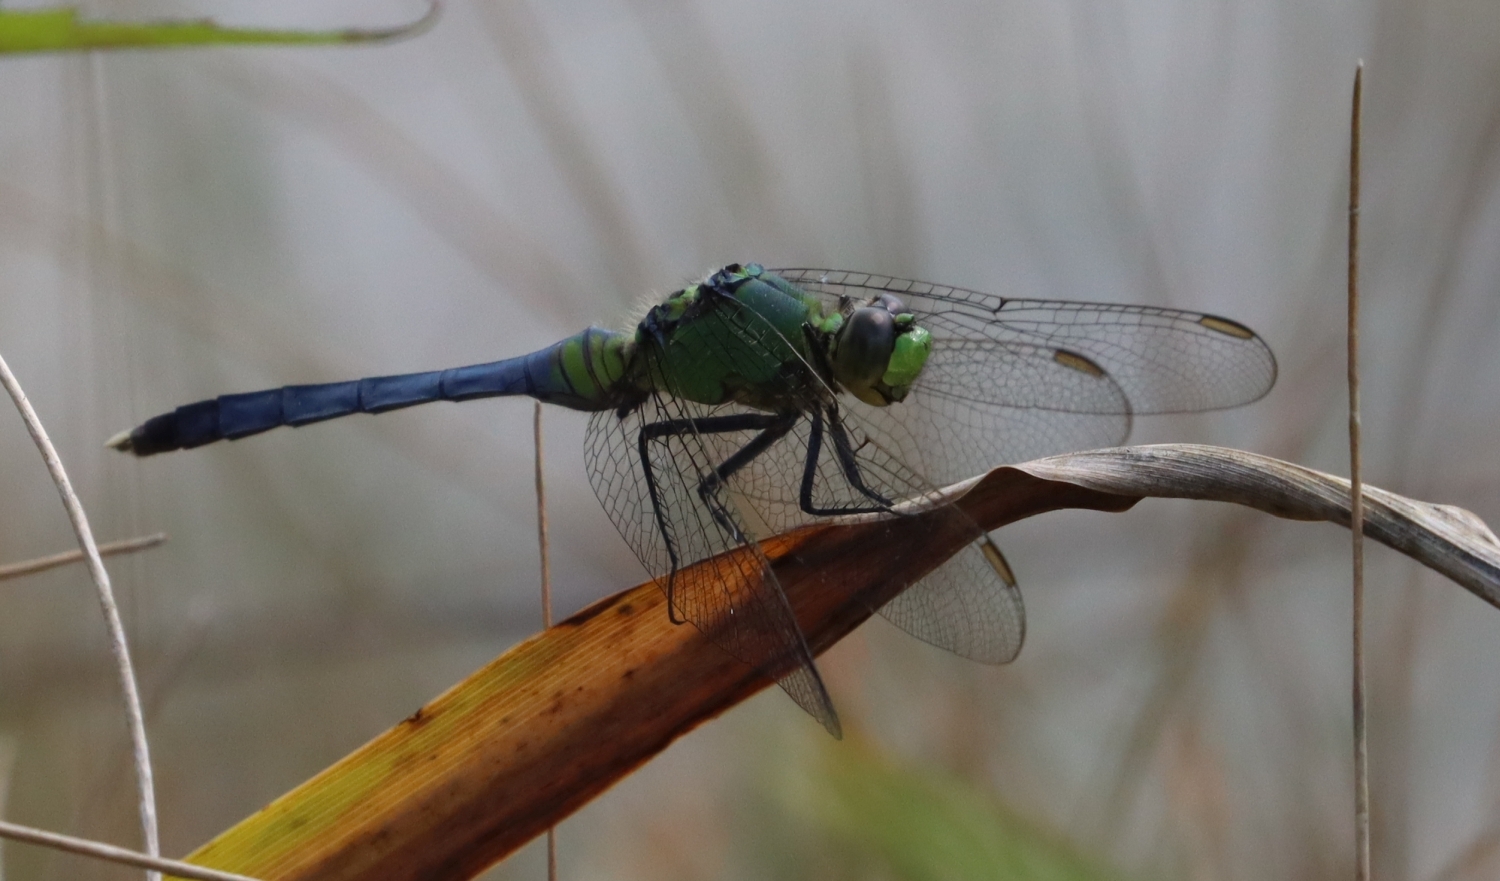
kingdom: Animalia
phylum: Arthropoda
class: Insecta
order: Odonata
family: Libellulidae
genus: Erythemis
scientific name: Erythemis simplicicollis
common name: Eastern pondhawk
